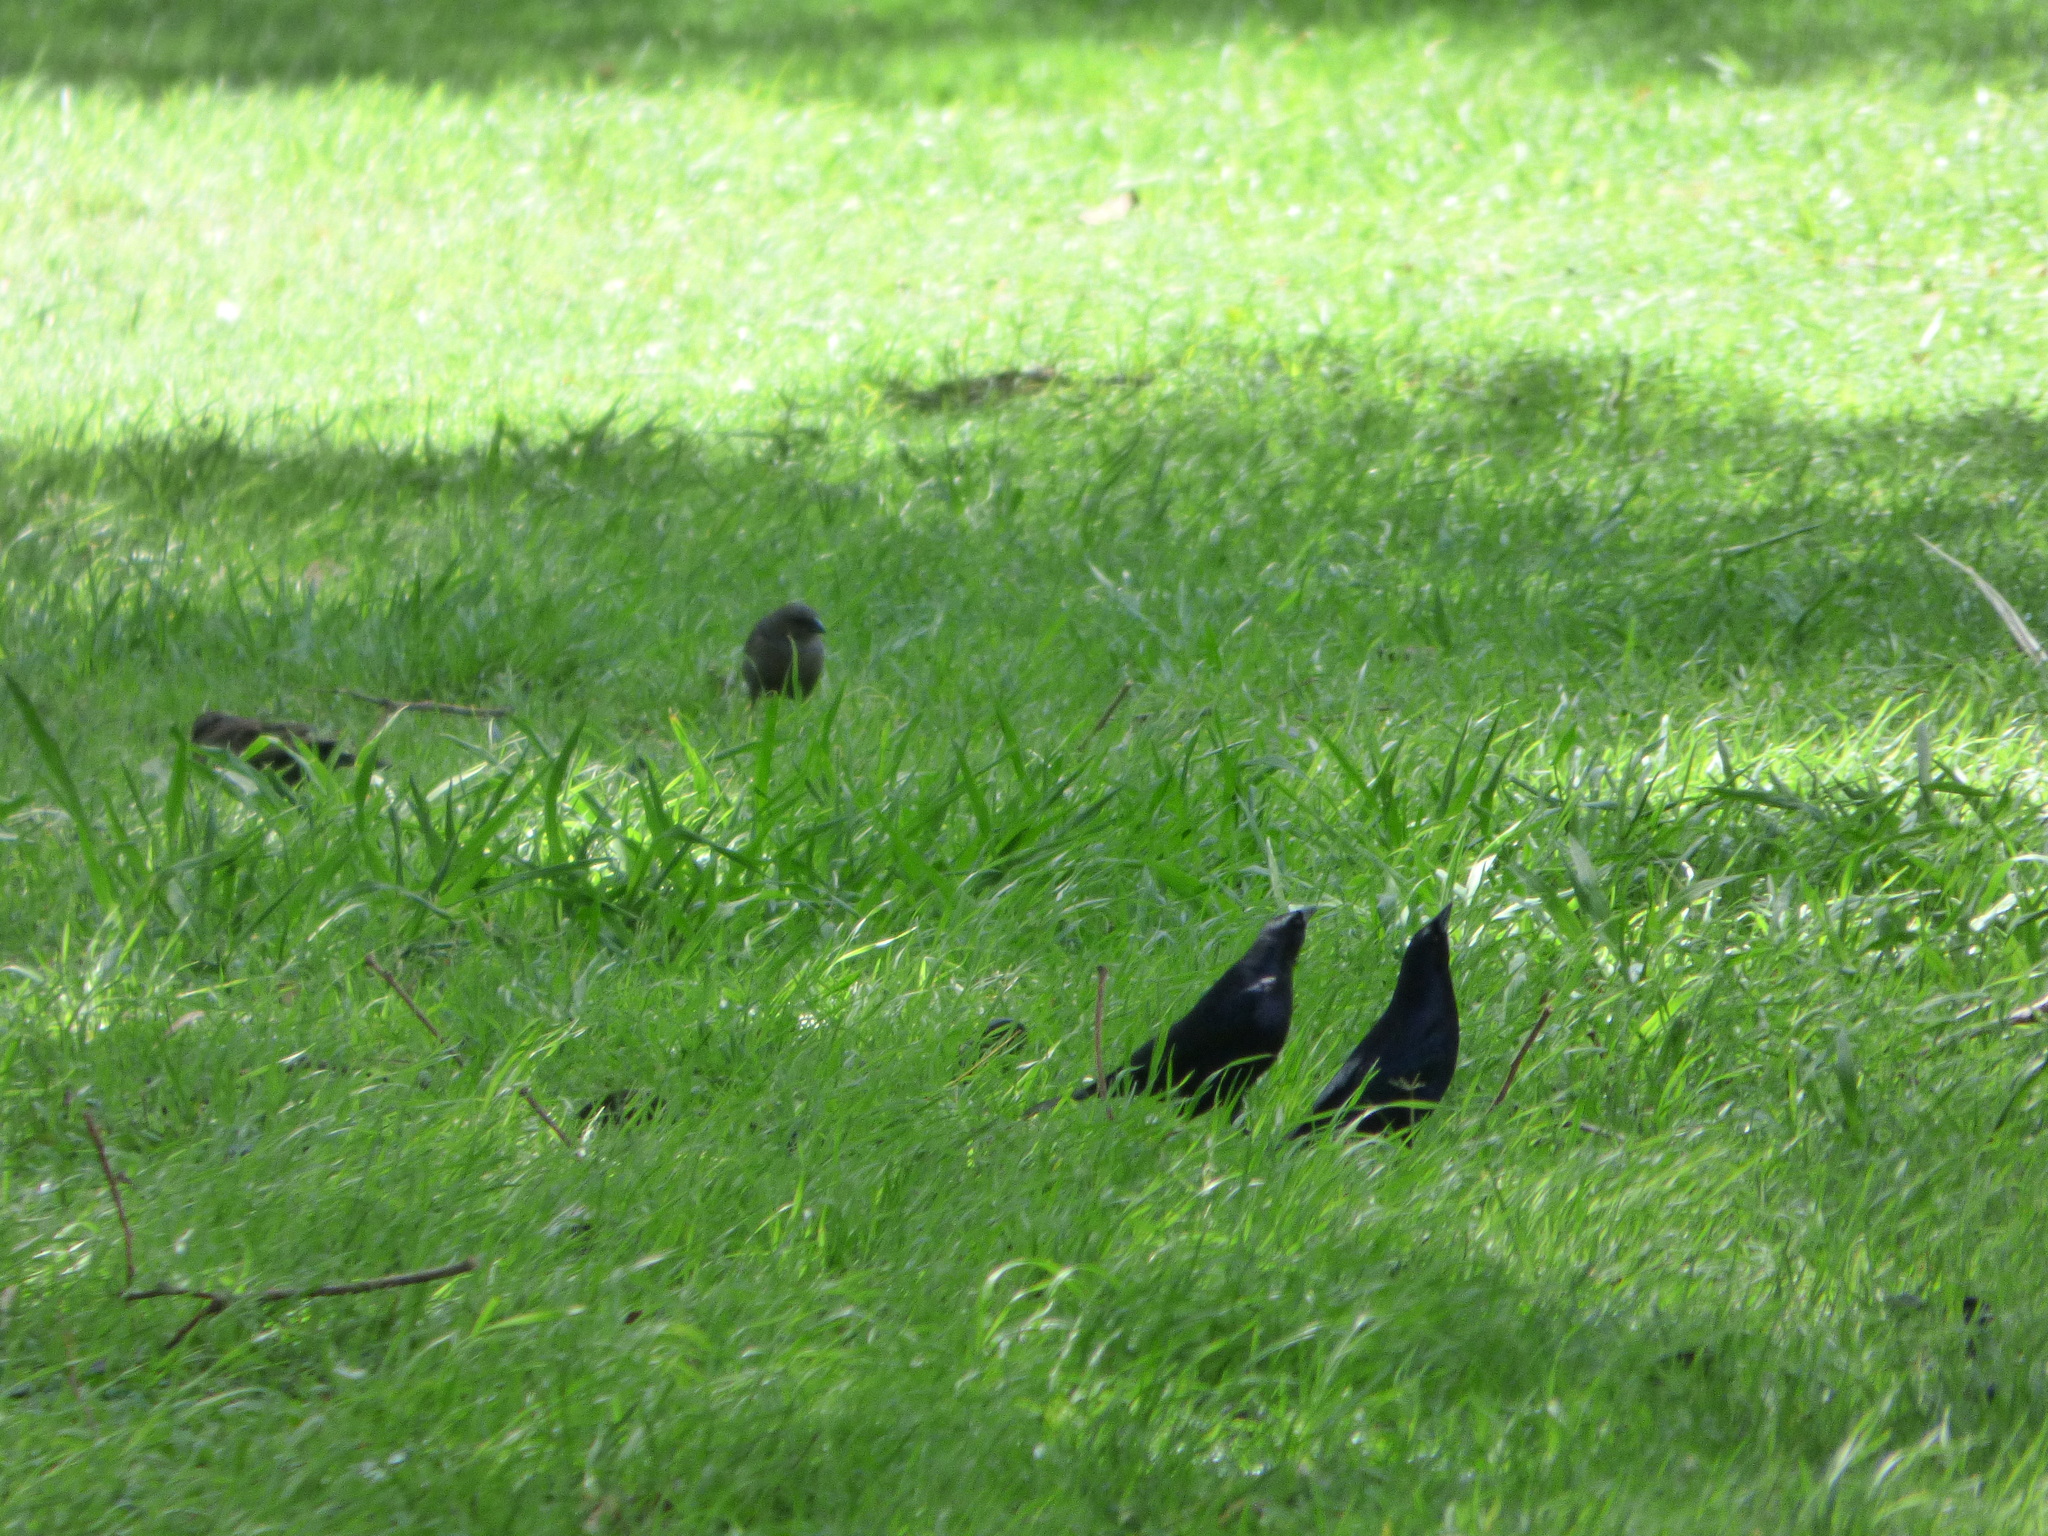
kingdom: Animalia
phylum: Chordata
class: Aves
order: Passeriformes
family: Icteridae
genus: Molothrus
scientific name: Molothrus bonariensis
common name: Shiny cowbird
